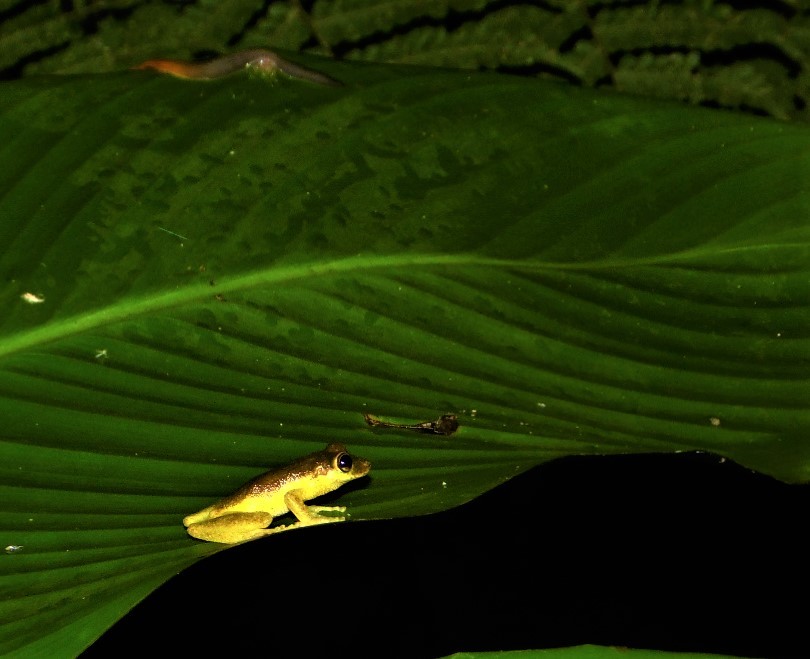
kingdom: Animalia
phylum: Chordata
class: Amphibia
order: Anura
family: Hylidae
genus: Ololygon
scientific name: Ololygon rizibilis
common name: Santo andre snouted treefrog
